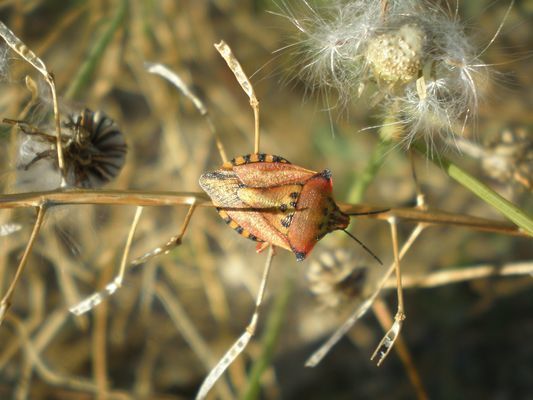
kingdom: Animalia
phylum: Arthropoda
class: Insecta
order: Hemiptera
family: Pentatomidae
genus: Carpocoris
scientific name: Carpocoris mediterraneus
